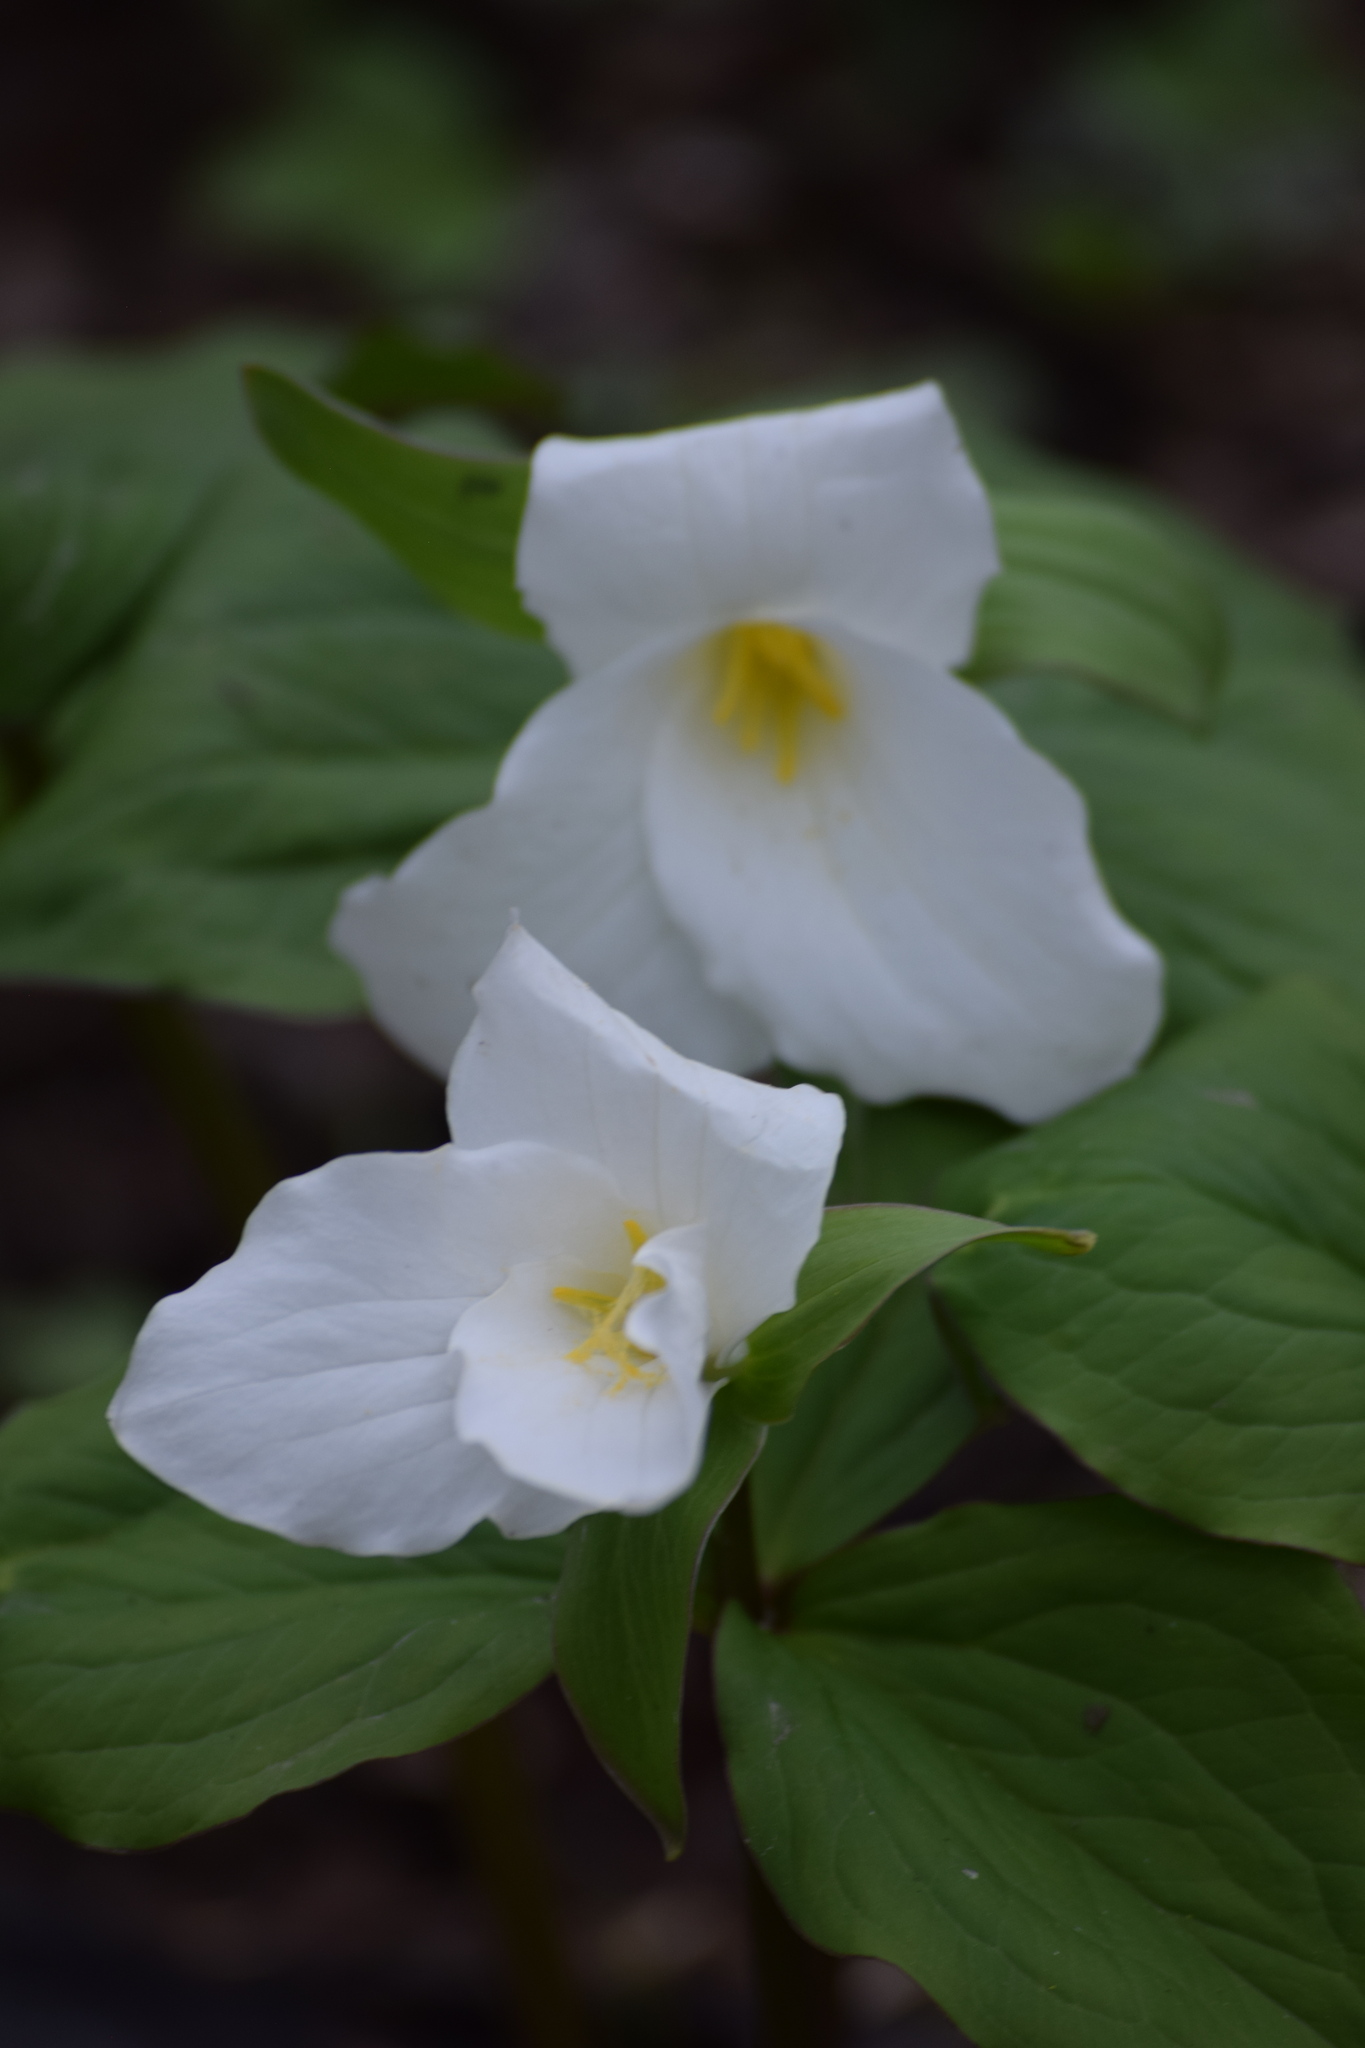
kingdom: Plantae
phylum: Tracheophyta
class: Liliopsida
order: Liliales
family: Melanthiaceae
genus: Trillium
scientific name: Trillium grandiflorum
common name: Great white trillium
